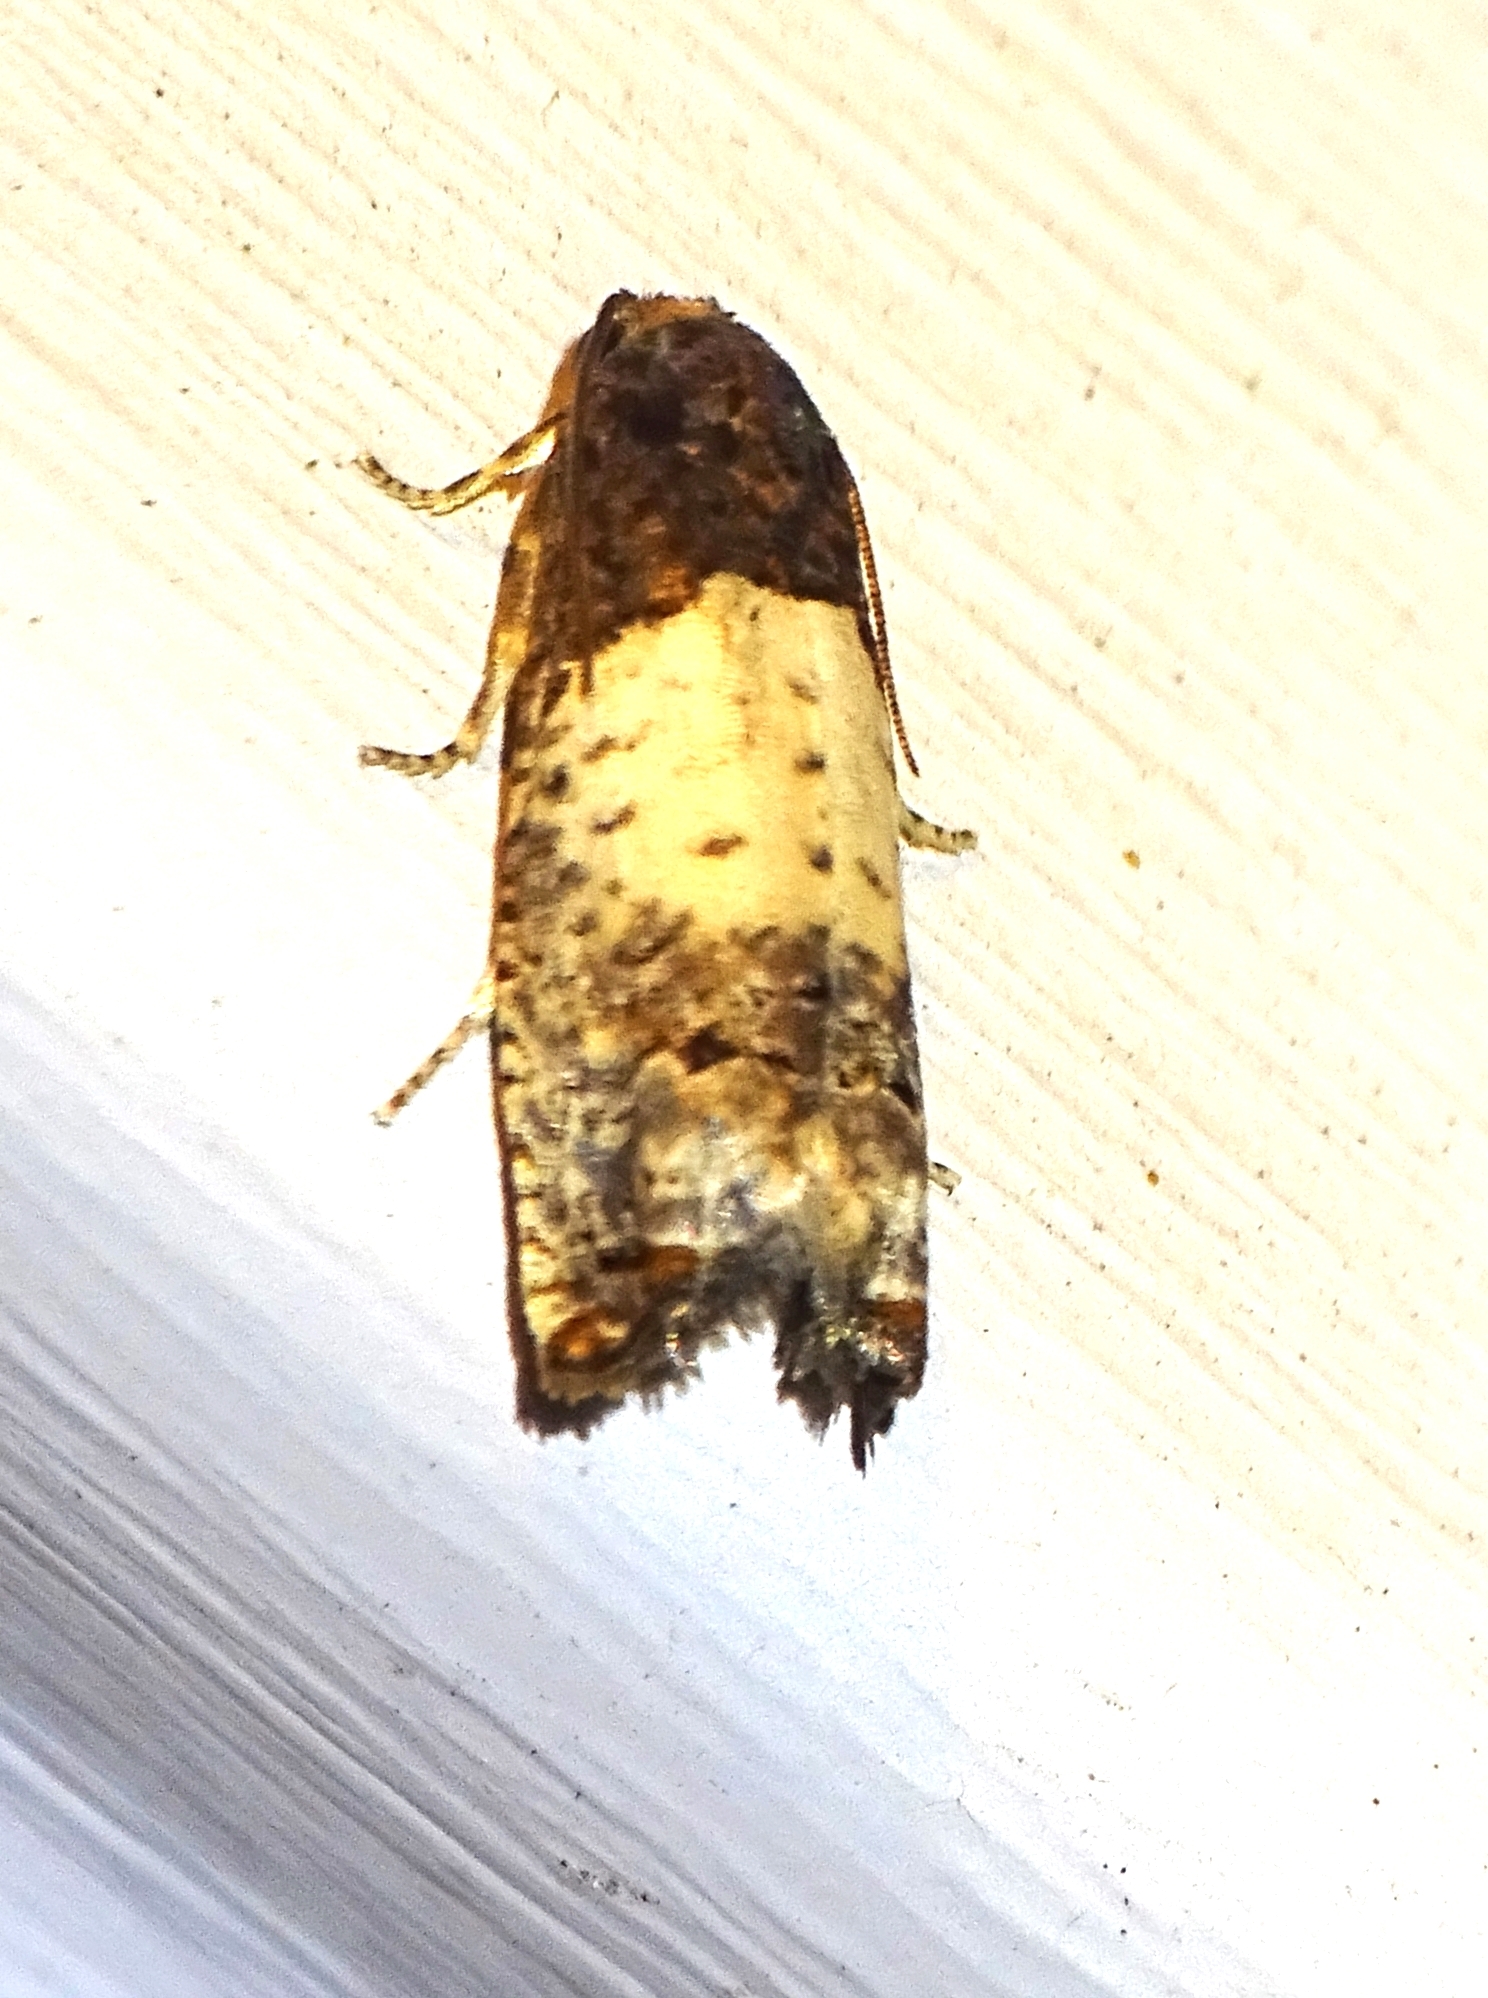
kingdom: Animalia
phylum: Arthropoda
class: Insecta
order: Lepidoptera
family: Tortricidae
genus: Epiblema
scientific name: Epiblema scudderiana
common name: Goldenrod gall moth
